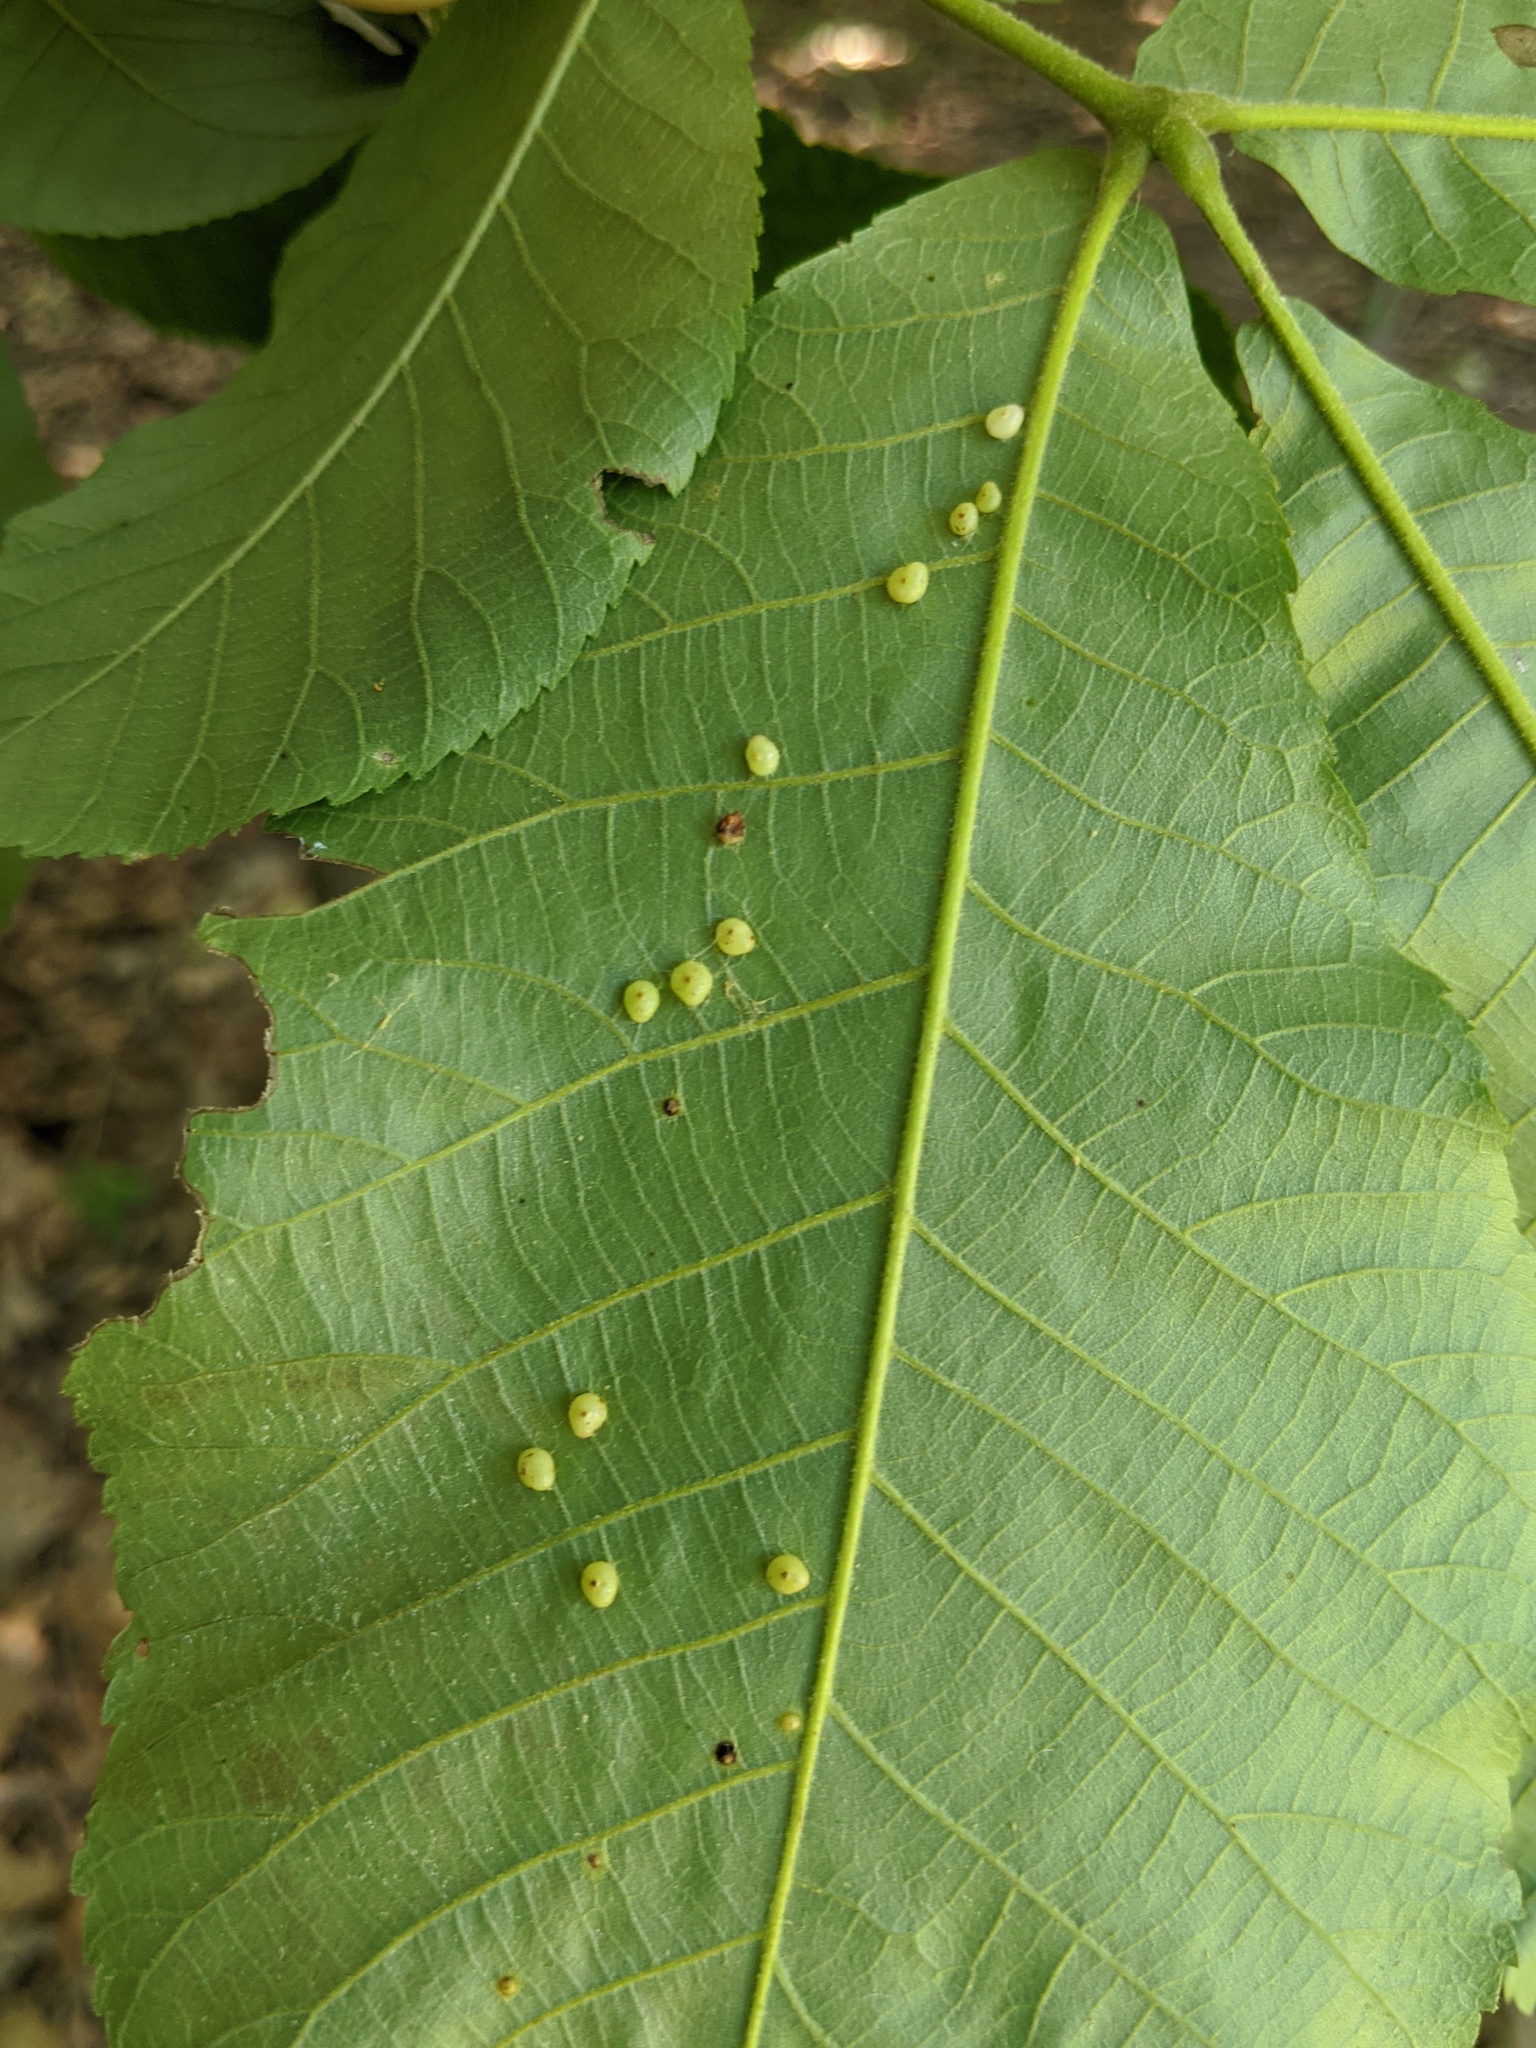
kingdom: Animalia
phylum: Arthropoda
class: Insecta
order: Diptera
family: Cecidomyiidae
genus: Caryomyia
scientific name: Caryomyia caryae
